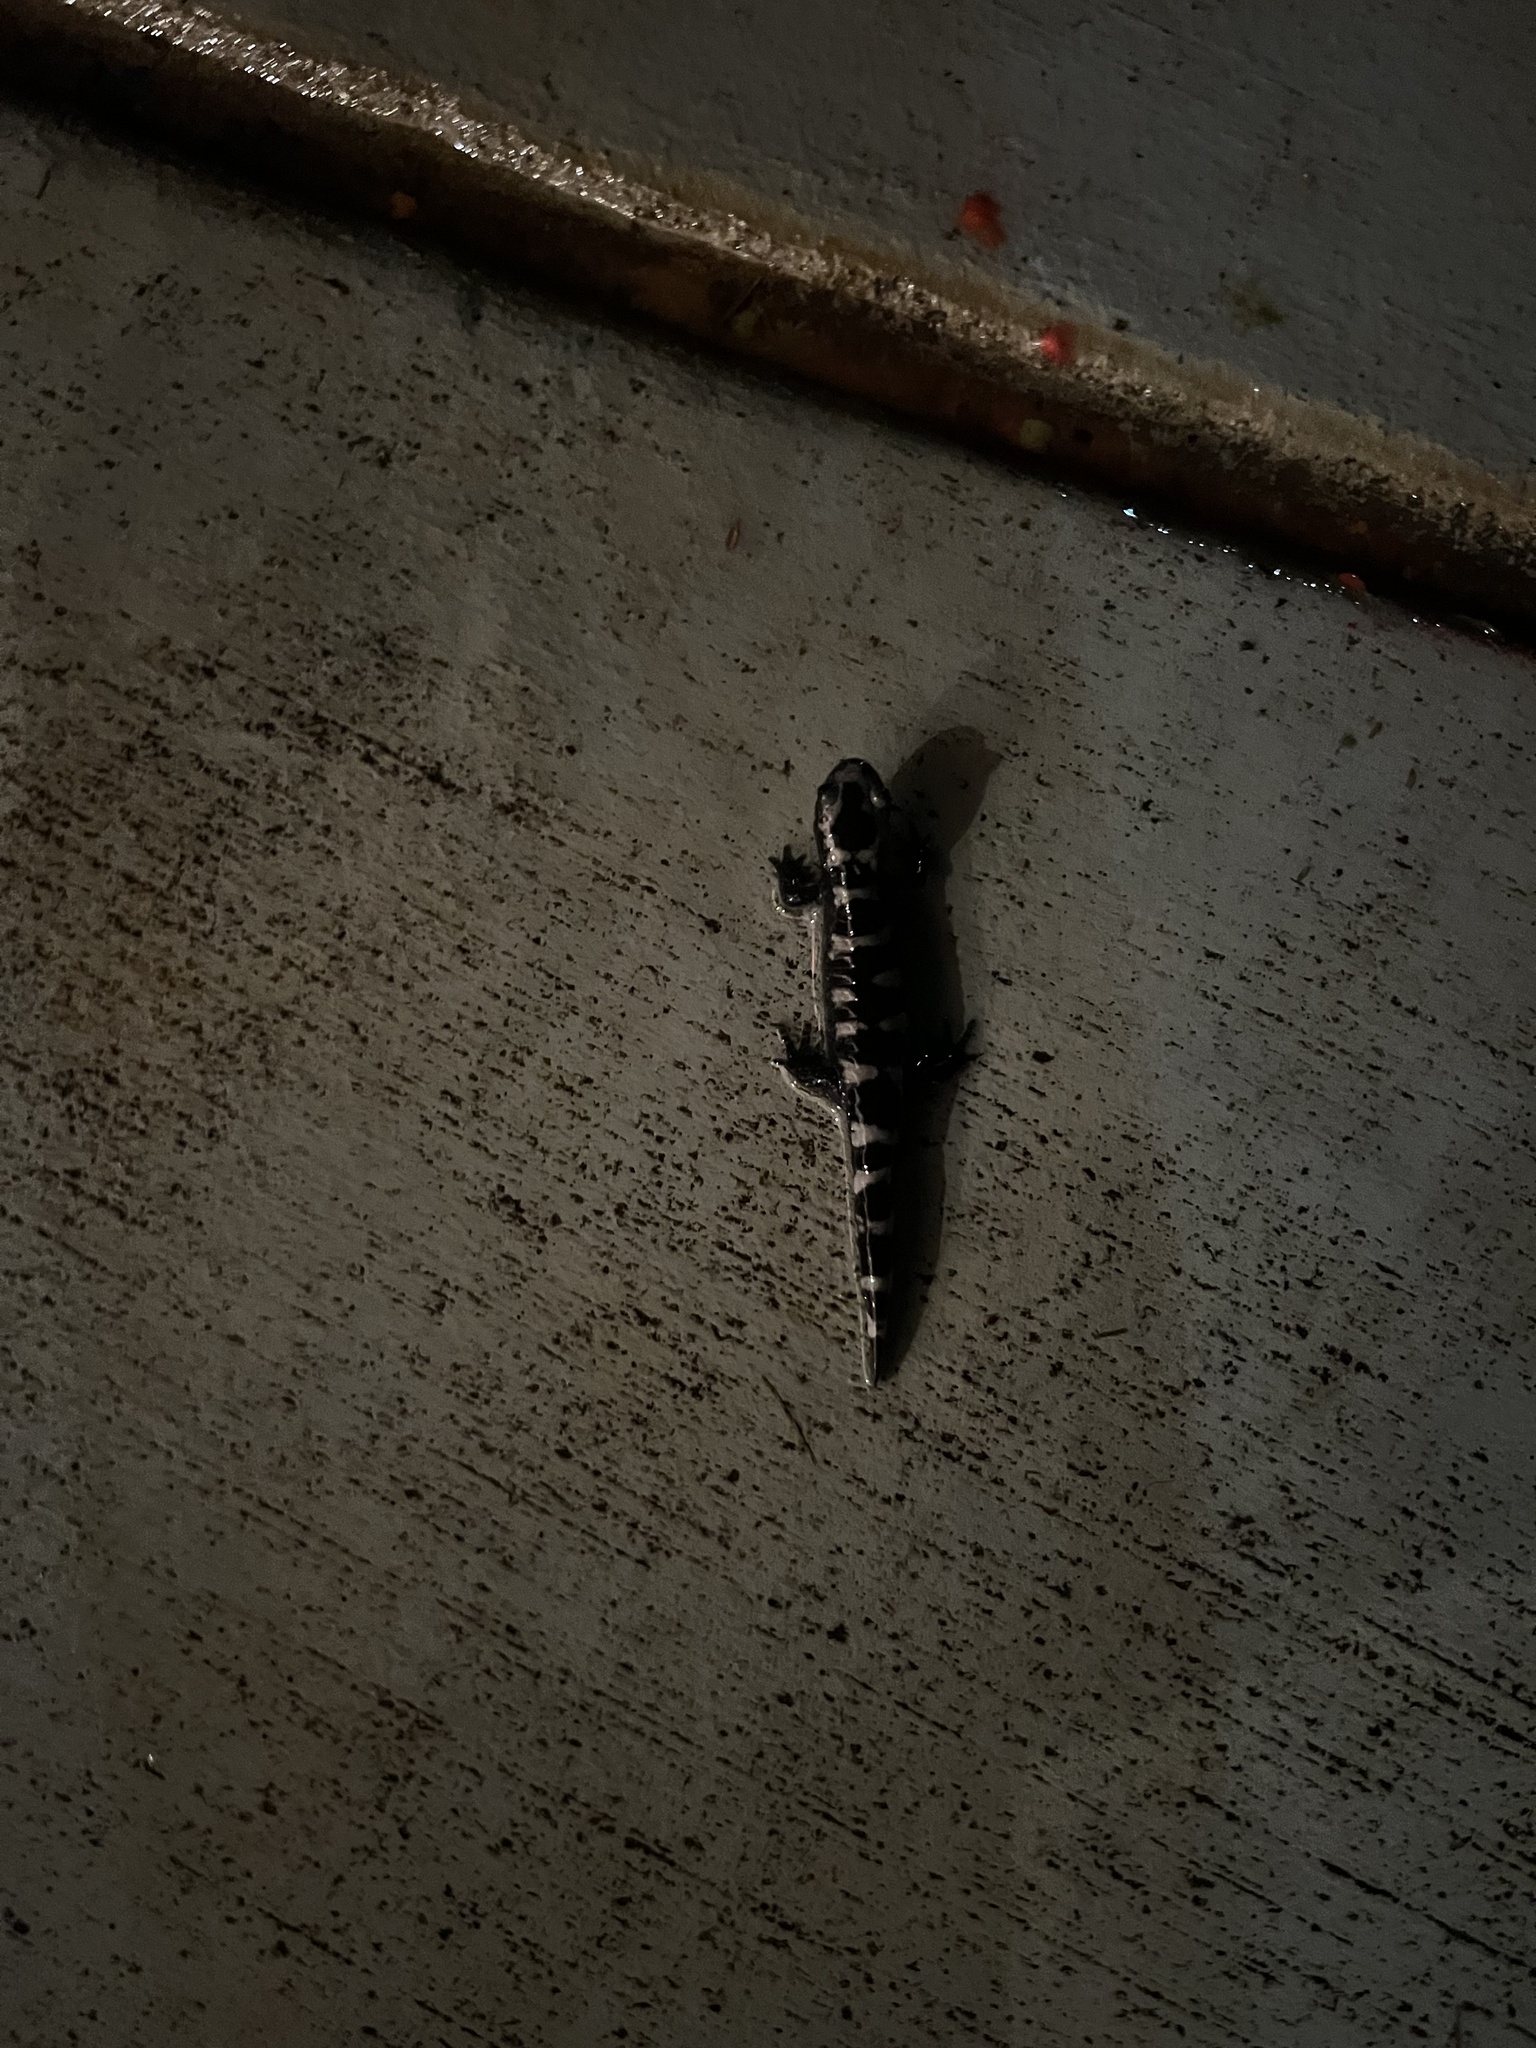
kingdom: Animalia
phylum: Chordata
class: Amphibia
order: Caudata
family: Ambystomatidae
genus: Ambystoma
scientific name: Ambystoma opacum
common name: Marbled salamander
